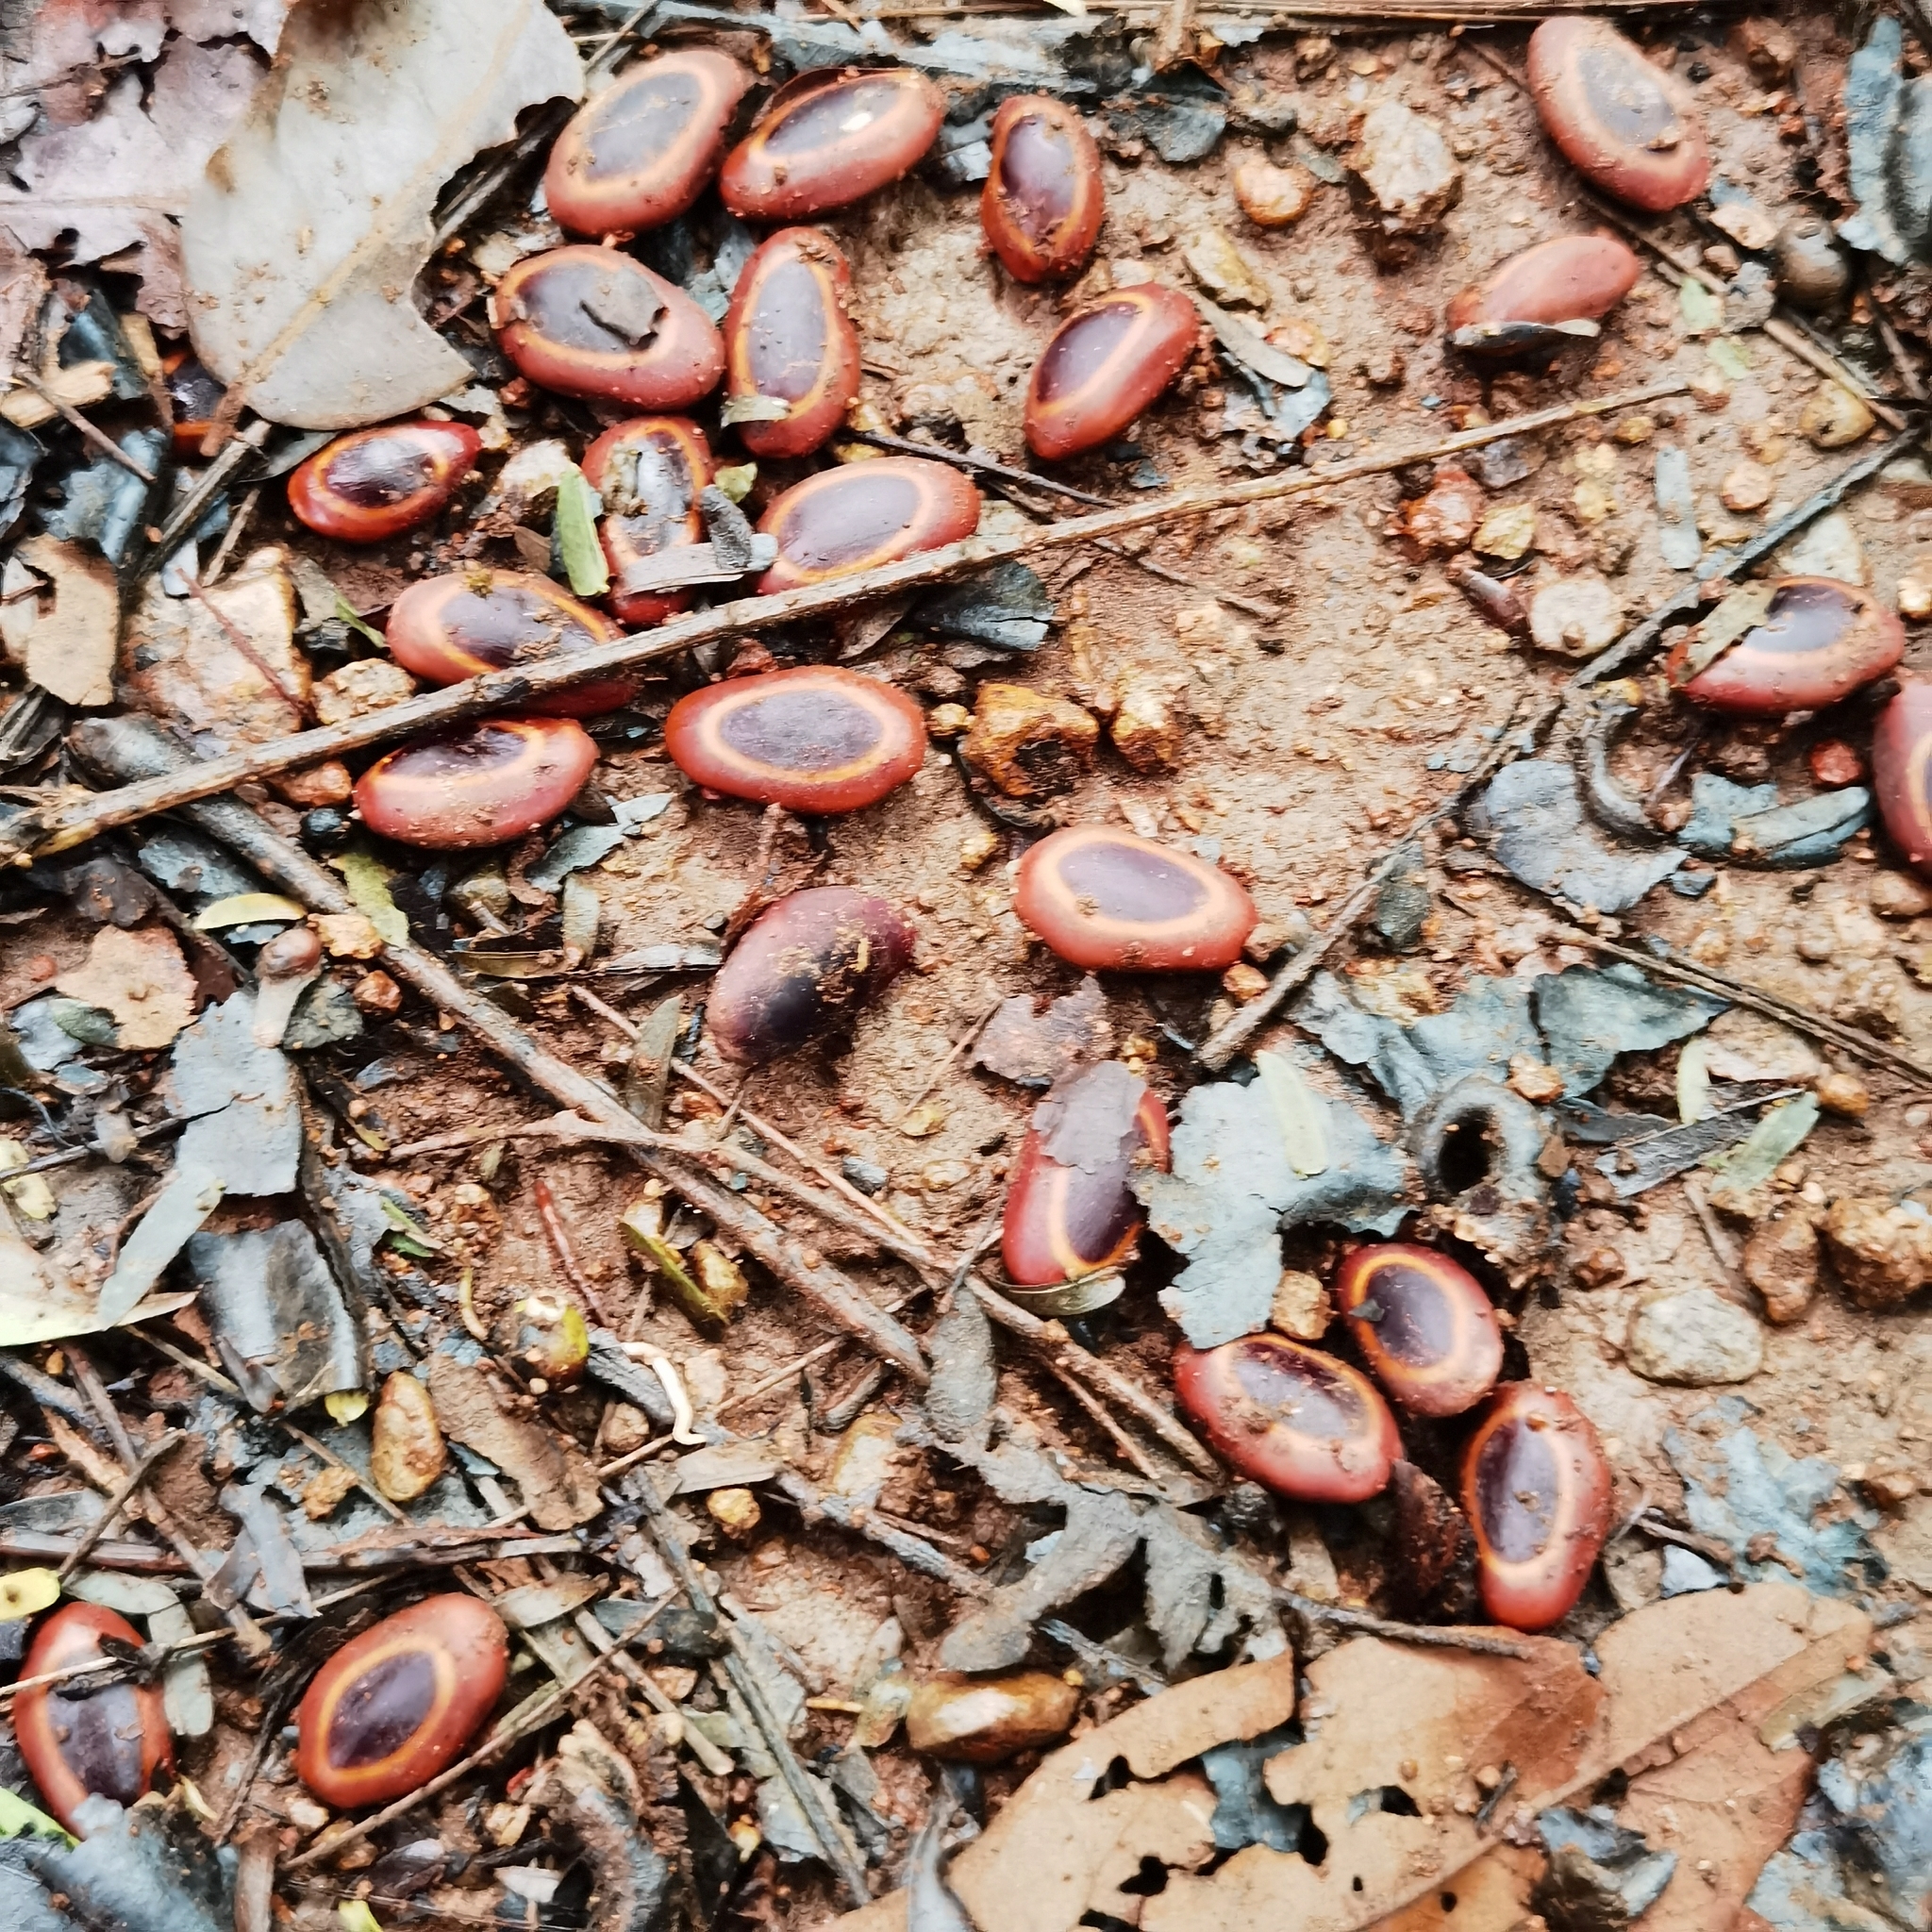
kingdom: Plantae
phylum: Tracheophyta
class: Magnoliopsida
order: Fabales
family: Fabaceae
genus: Enterolobium
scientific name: Enterolobium cyclocarpum
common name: Ear tree
